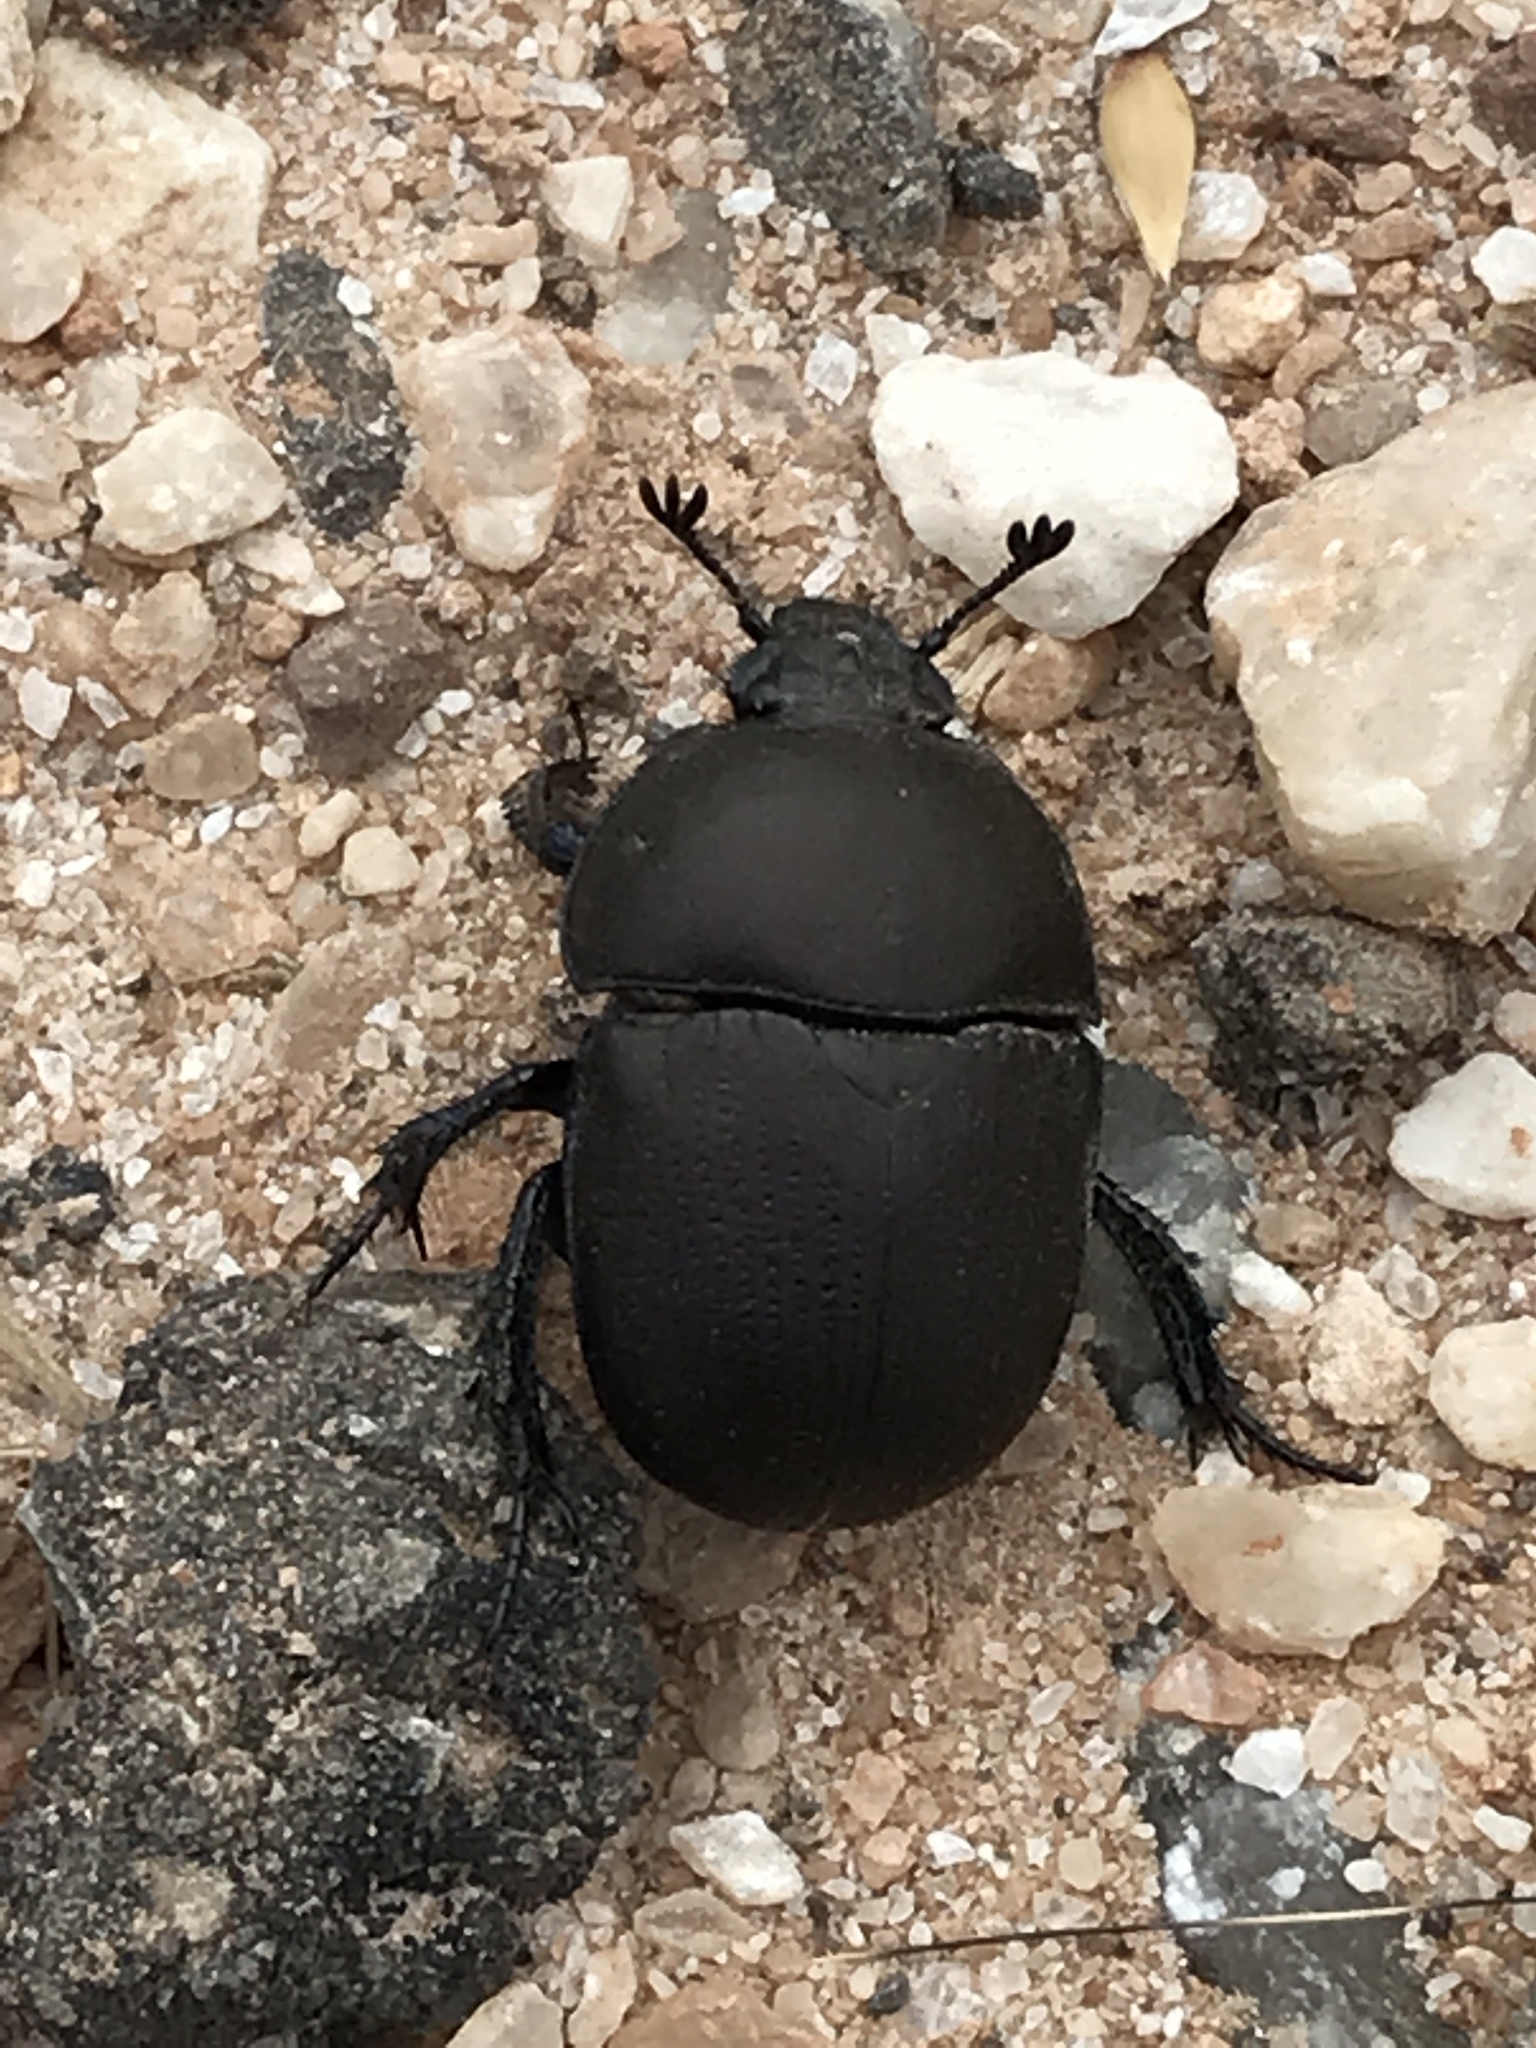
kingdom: Animalia
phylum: Arthropoda
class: Insecta
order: Coleoptera
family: Geotrupidae
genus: Geohowdenius
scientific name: Geohowdenius opacus
